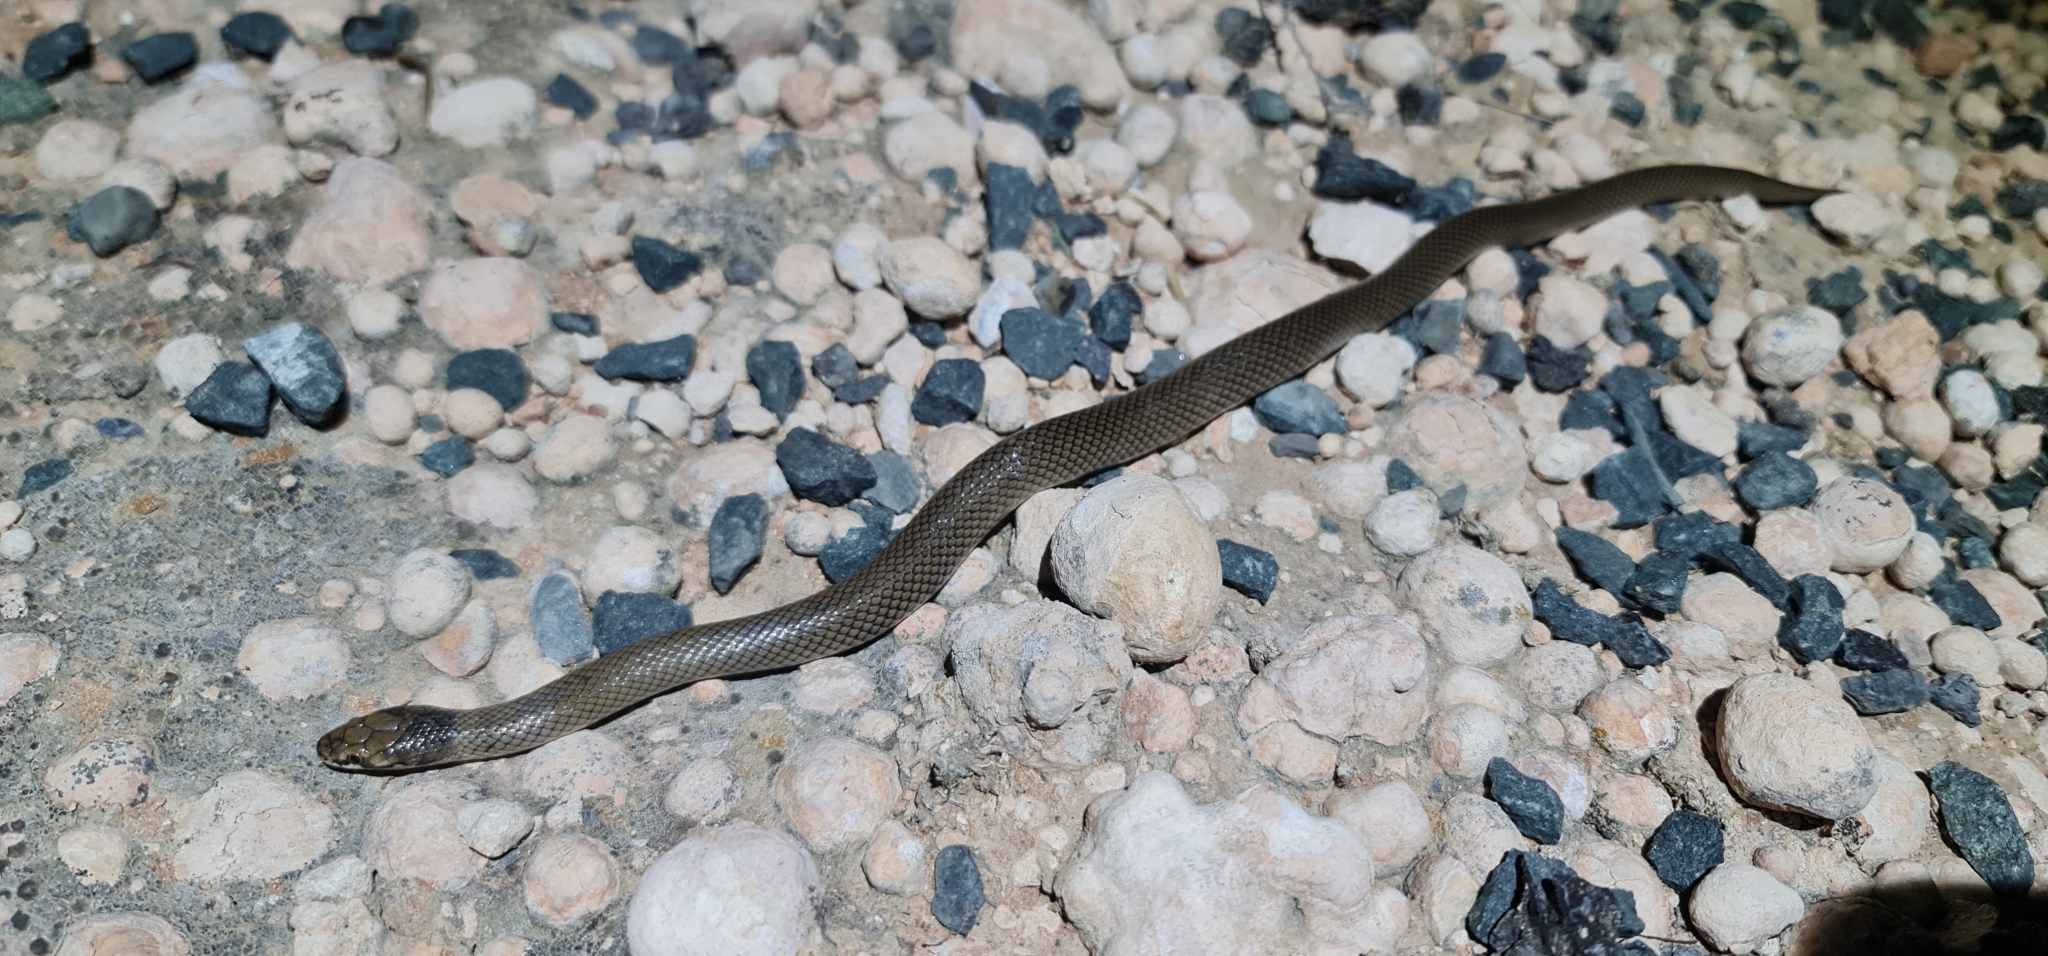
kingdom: Animalia
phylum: Chordata
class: Squamata
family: Elapidae
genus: Suta
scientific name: Suta suta
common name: Curl snake
